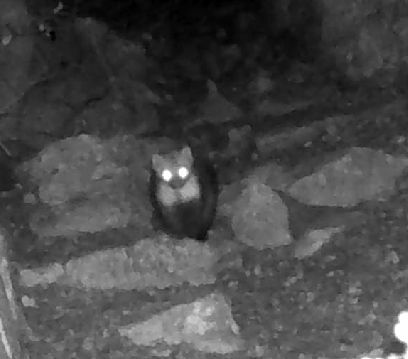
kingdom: Animalia
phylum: Chordata
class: Mammalia
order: Carnivora
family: Mustelidae
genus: Martes
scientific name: Martes foina
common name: Beech marten
